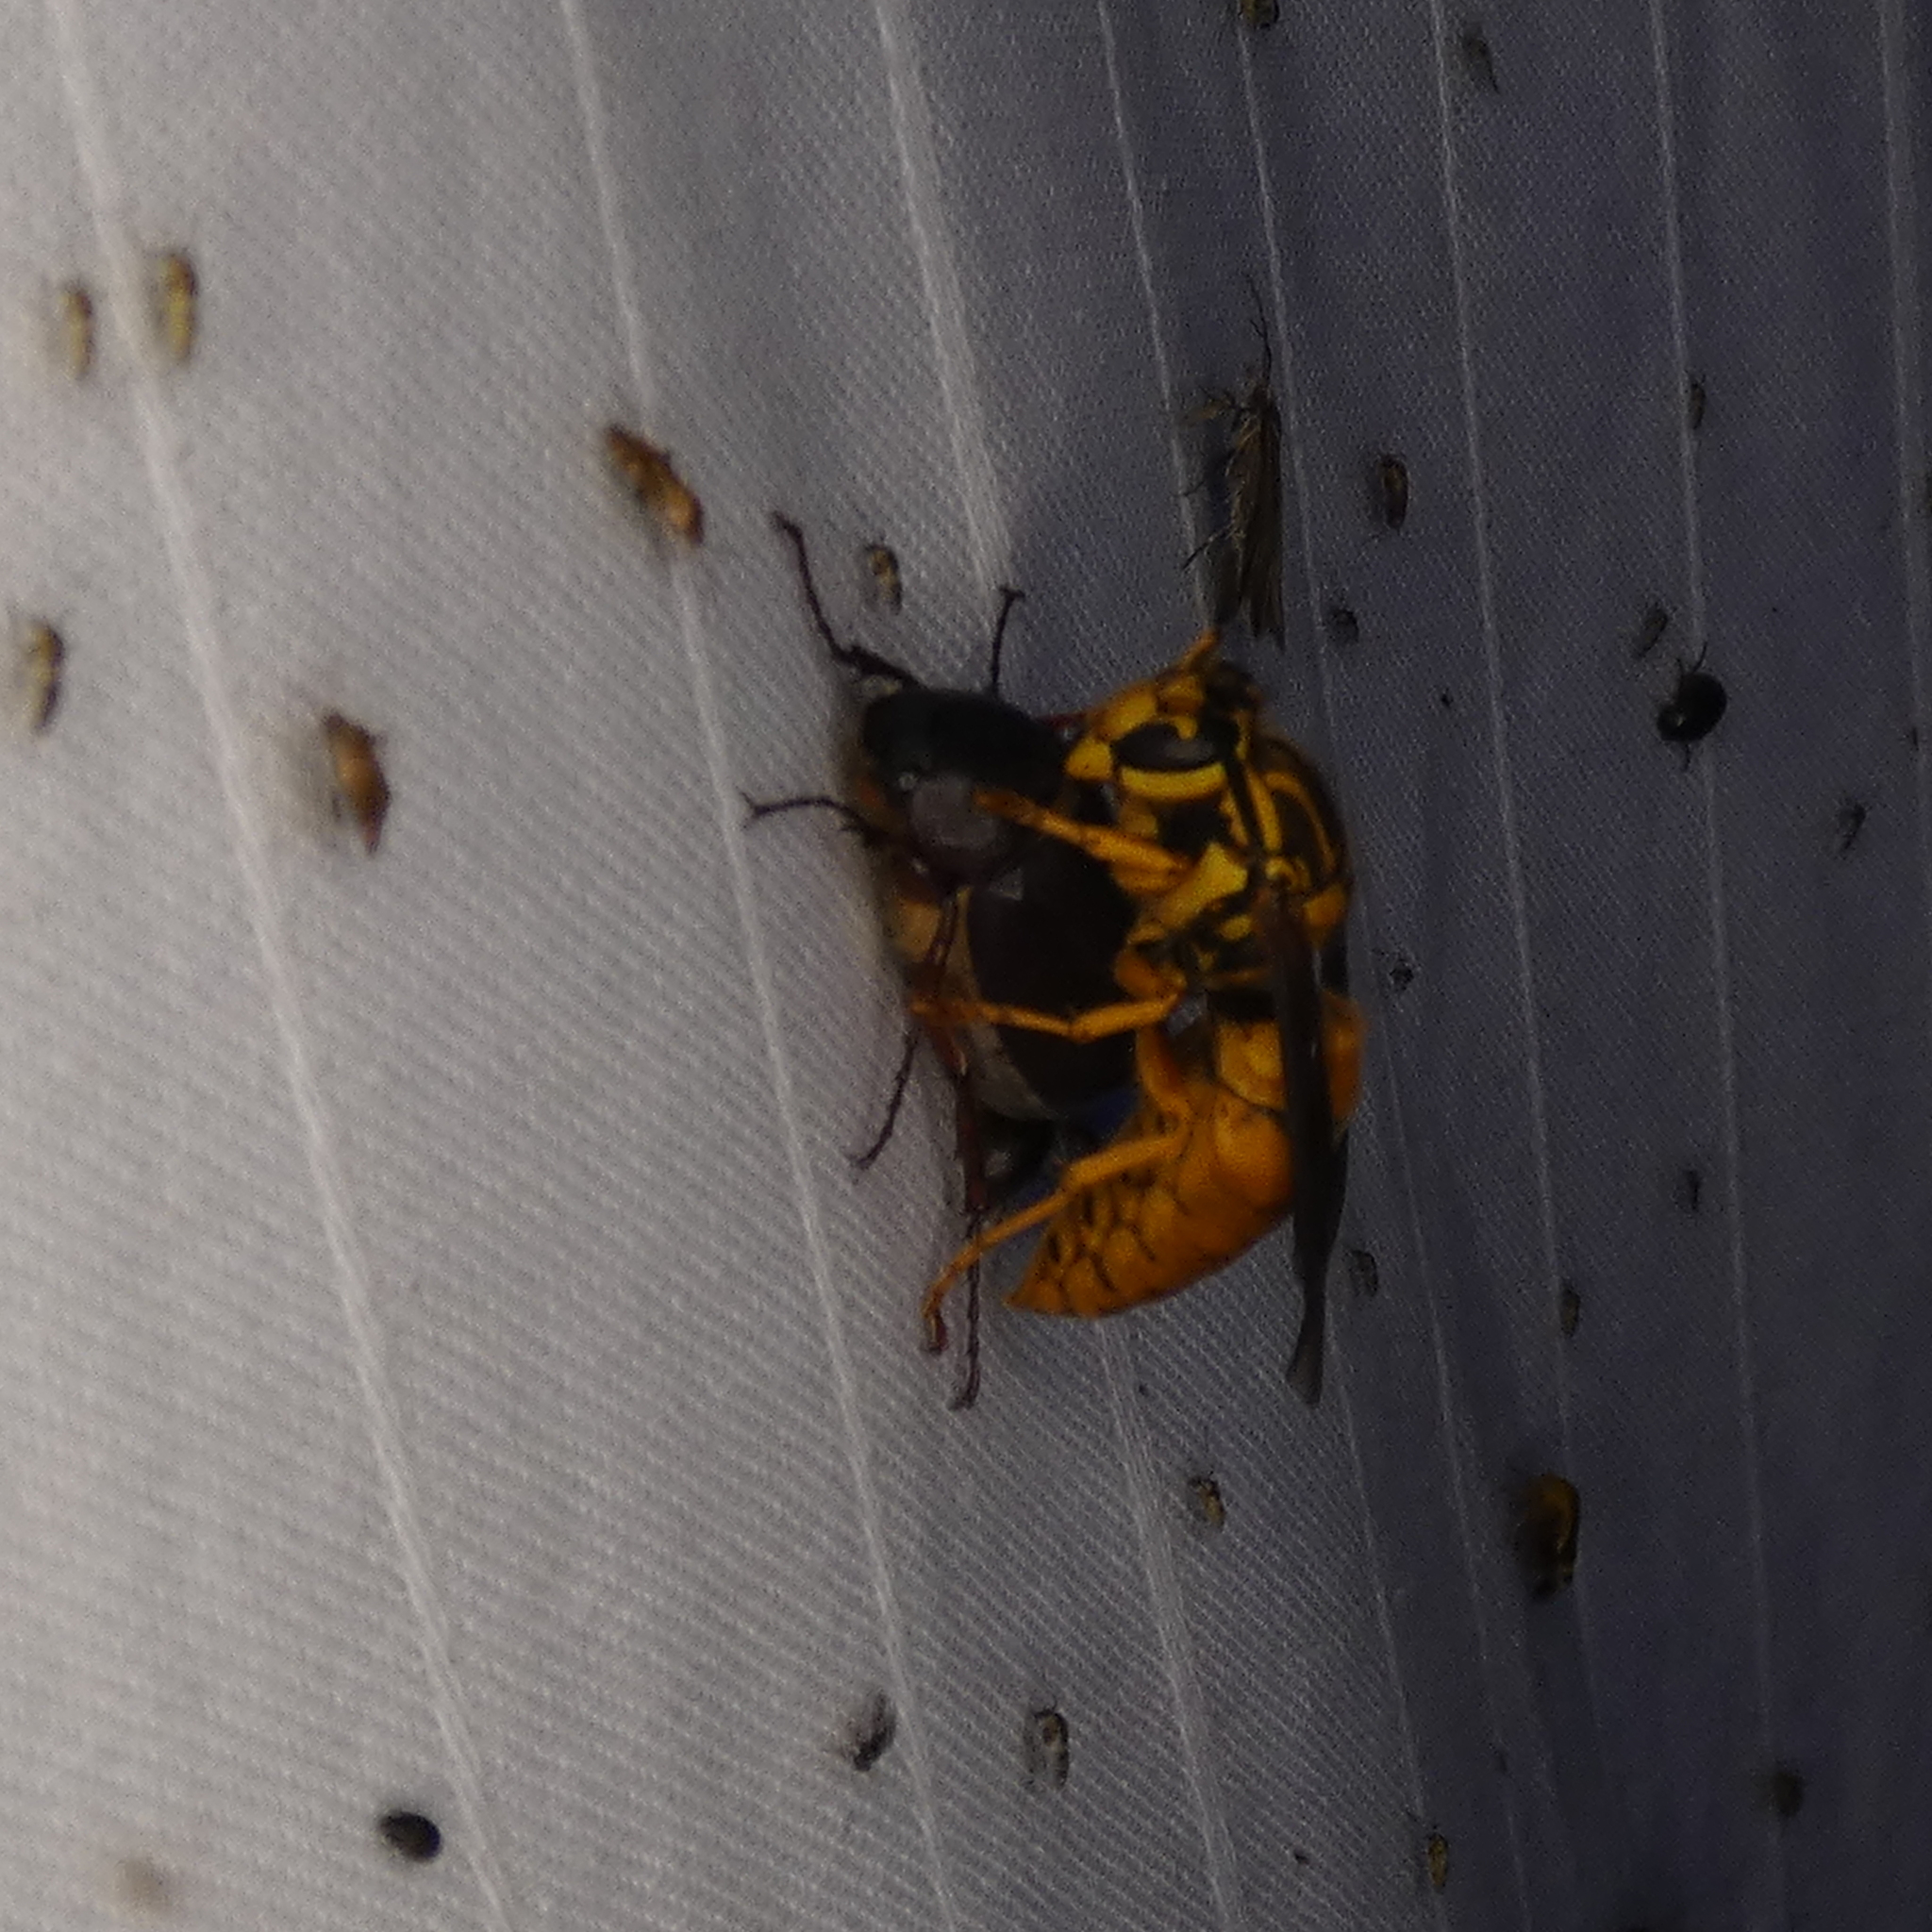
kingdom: Animalia
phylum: Arthropoda
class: Insecta
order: Hymenoptera
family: Vespidae
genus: Vespula
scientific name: Vespula squamosa
